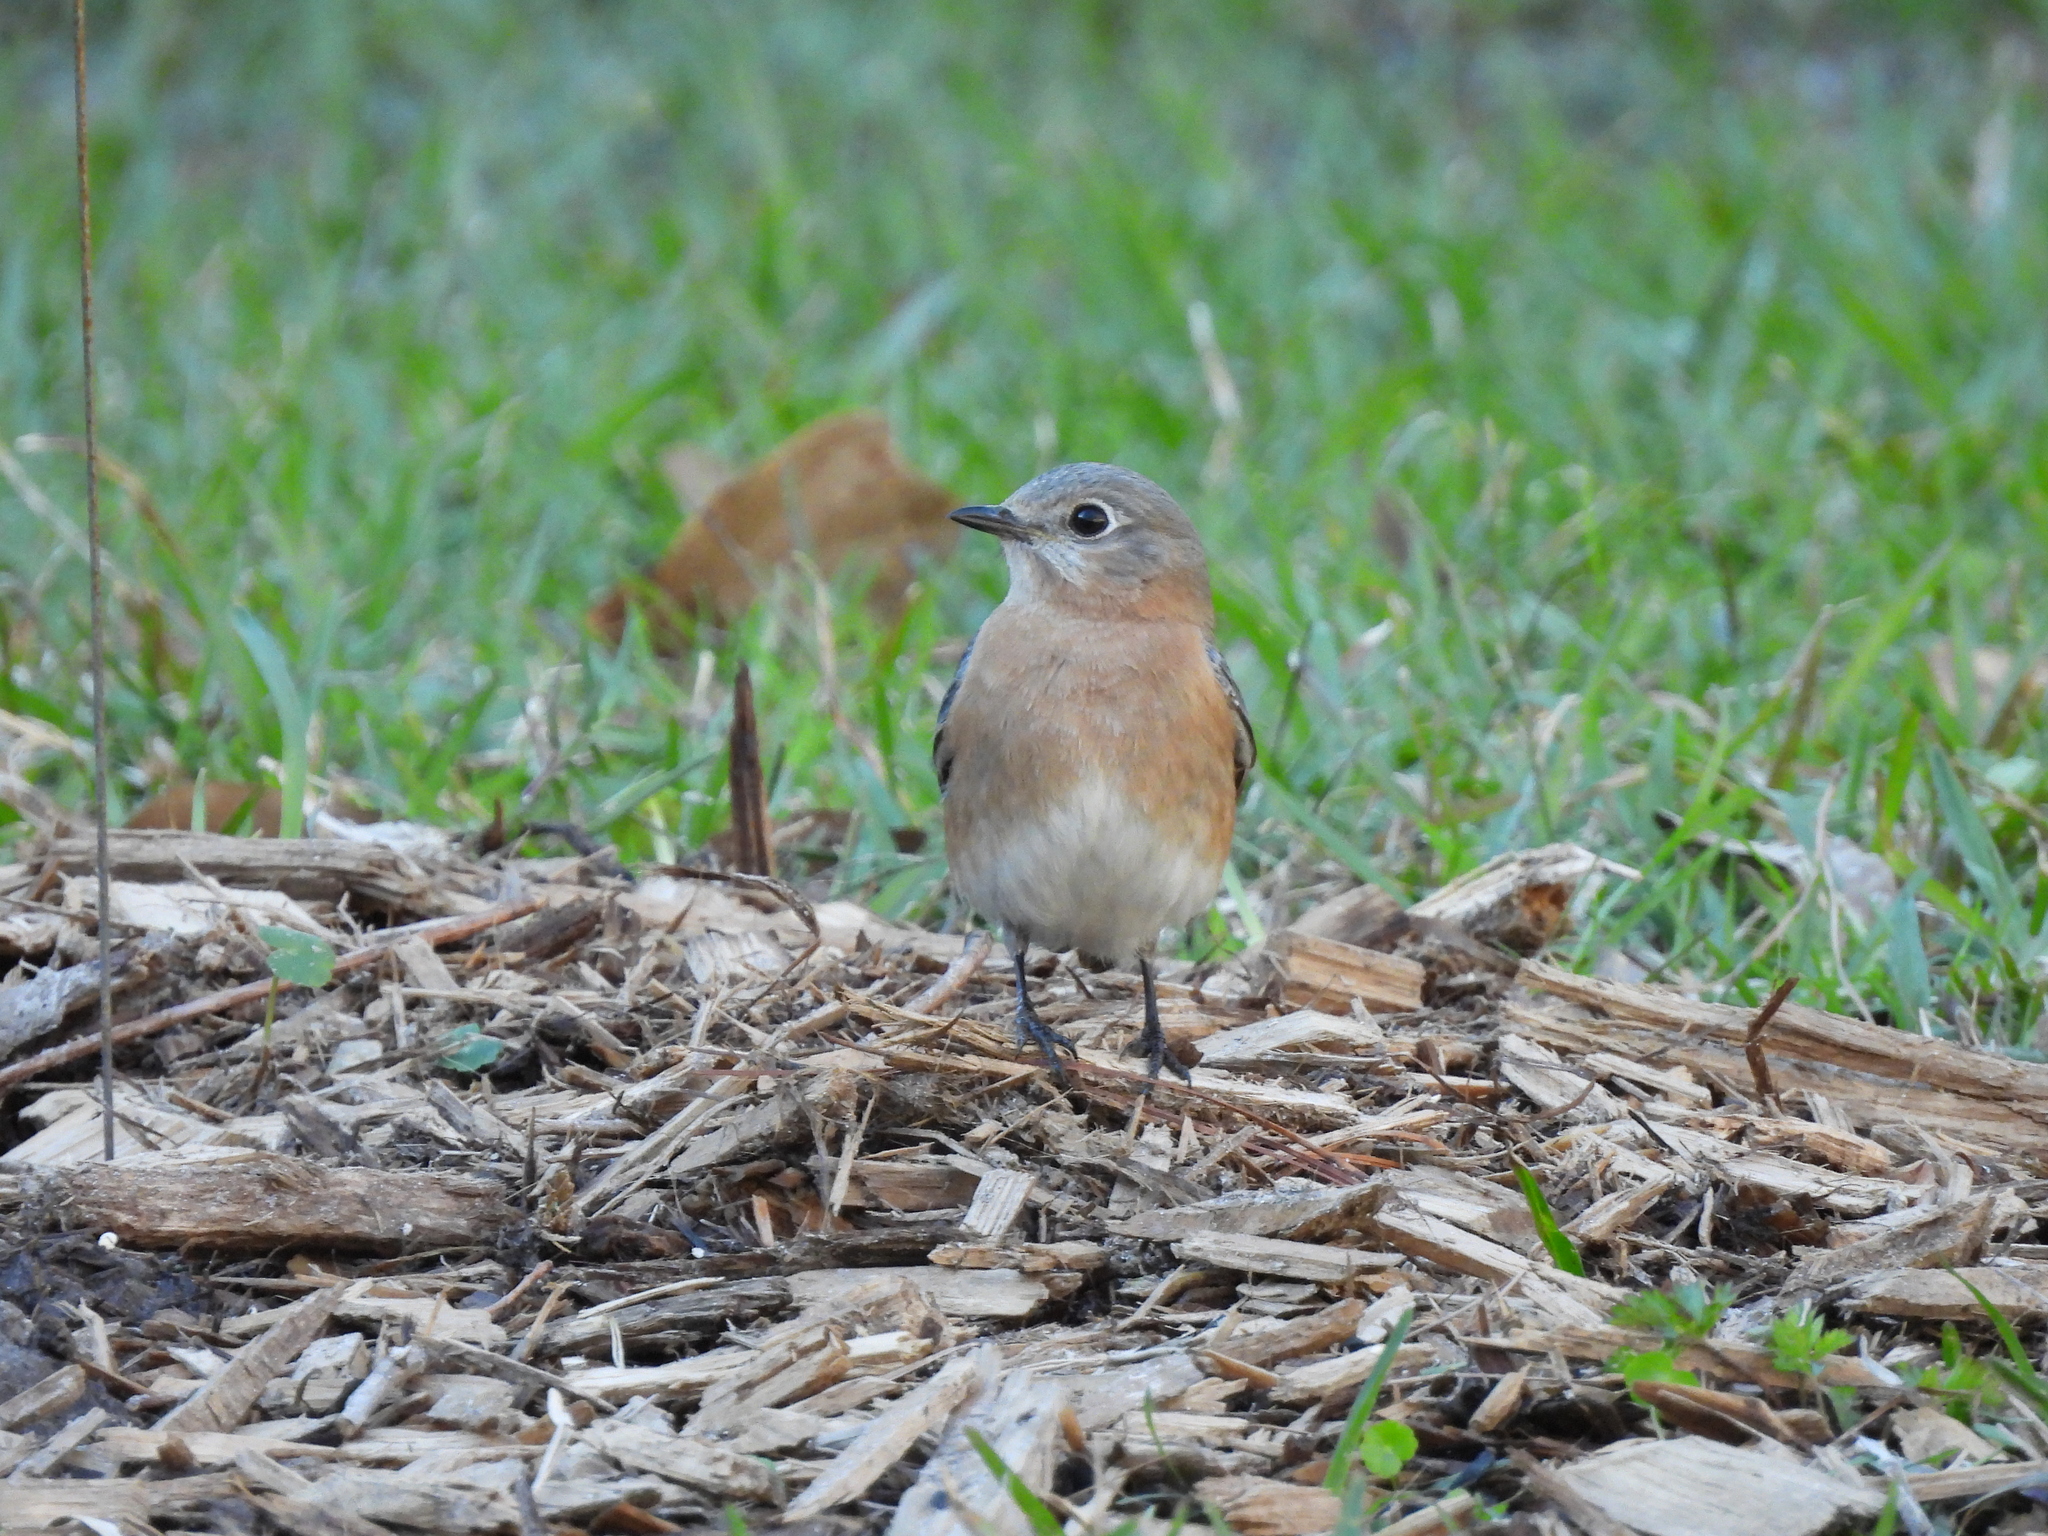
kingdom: Animalia
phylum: Chordata
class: Aves
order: Passeriformes
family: Turdidae
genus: Sialia
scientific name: Sialia sialis
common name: Eastern bluebird
